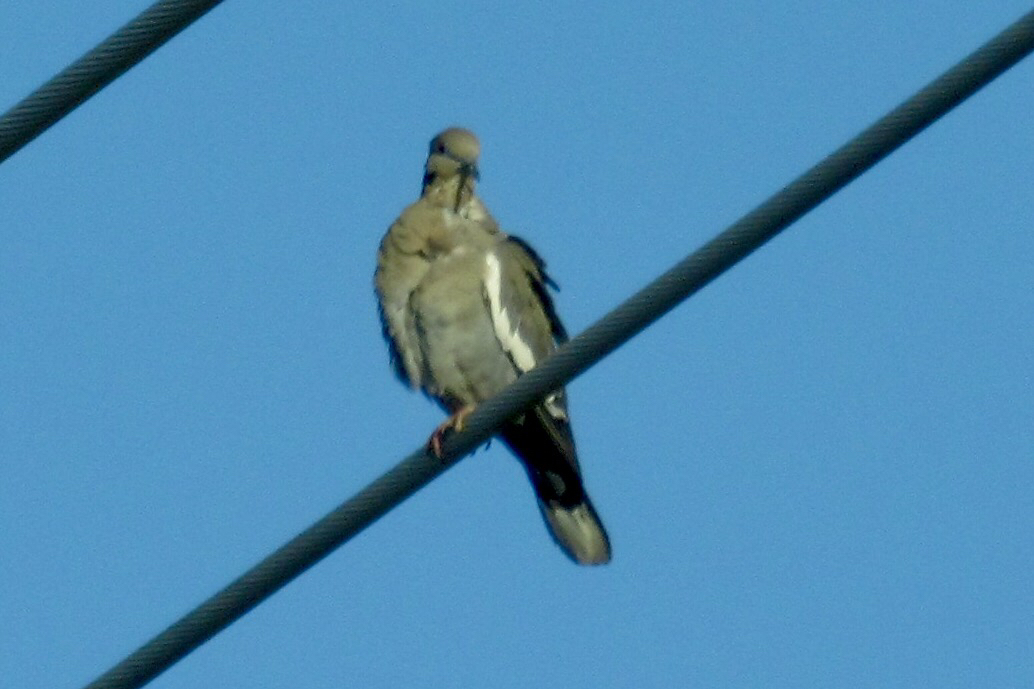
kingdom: Animalia
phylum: Chordata
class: Aves
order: Columbiformes
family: Columbidae
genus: Zenaida
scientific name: Zenaida asiatica
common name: White-winged dove
